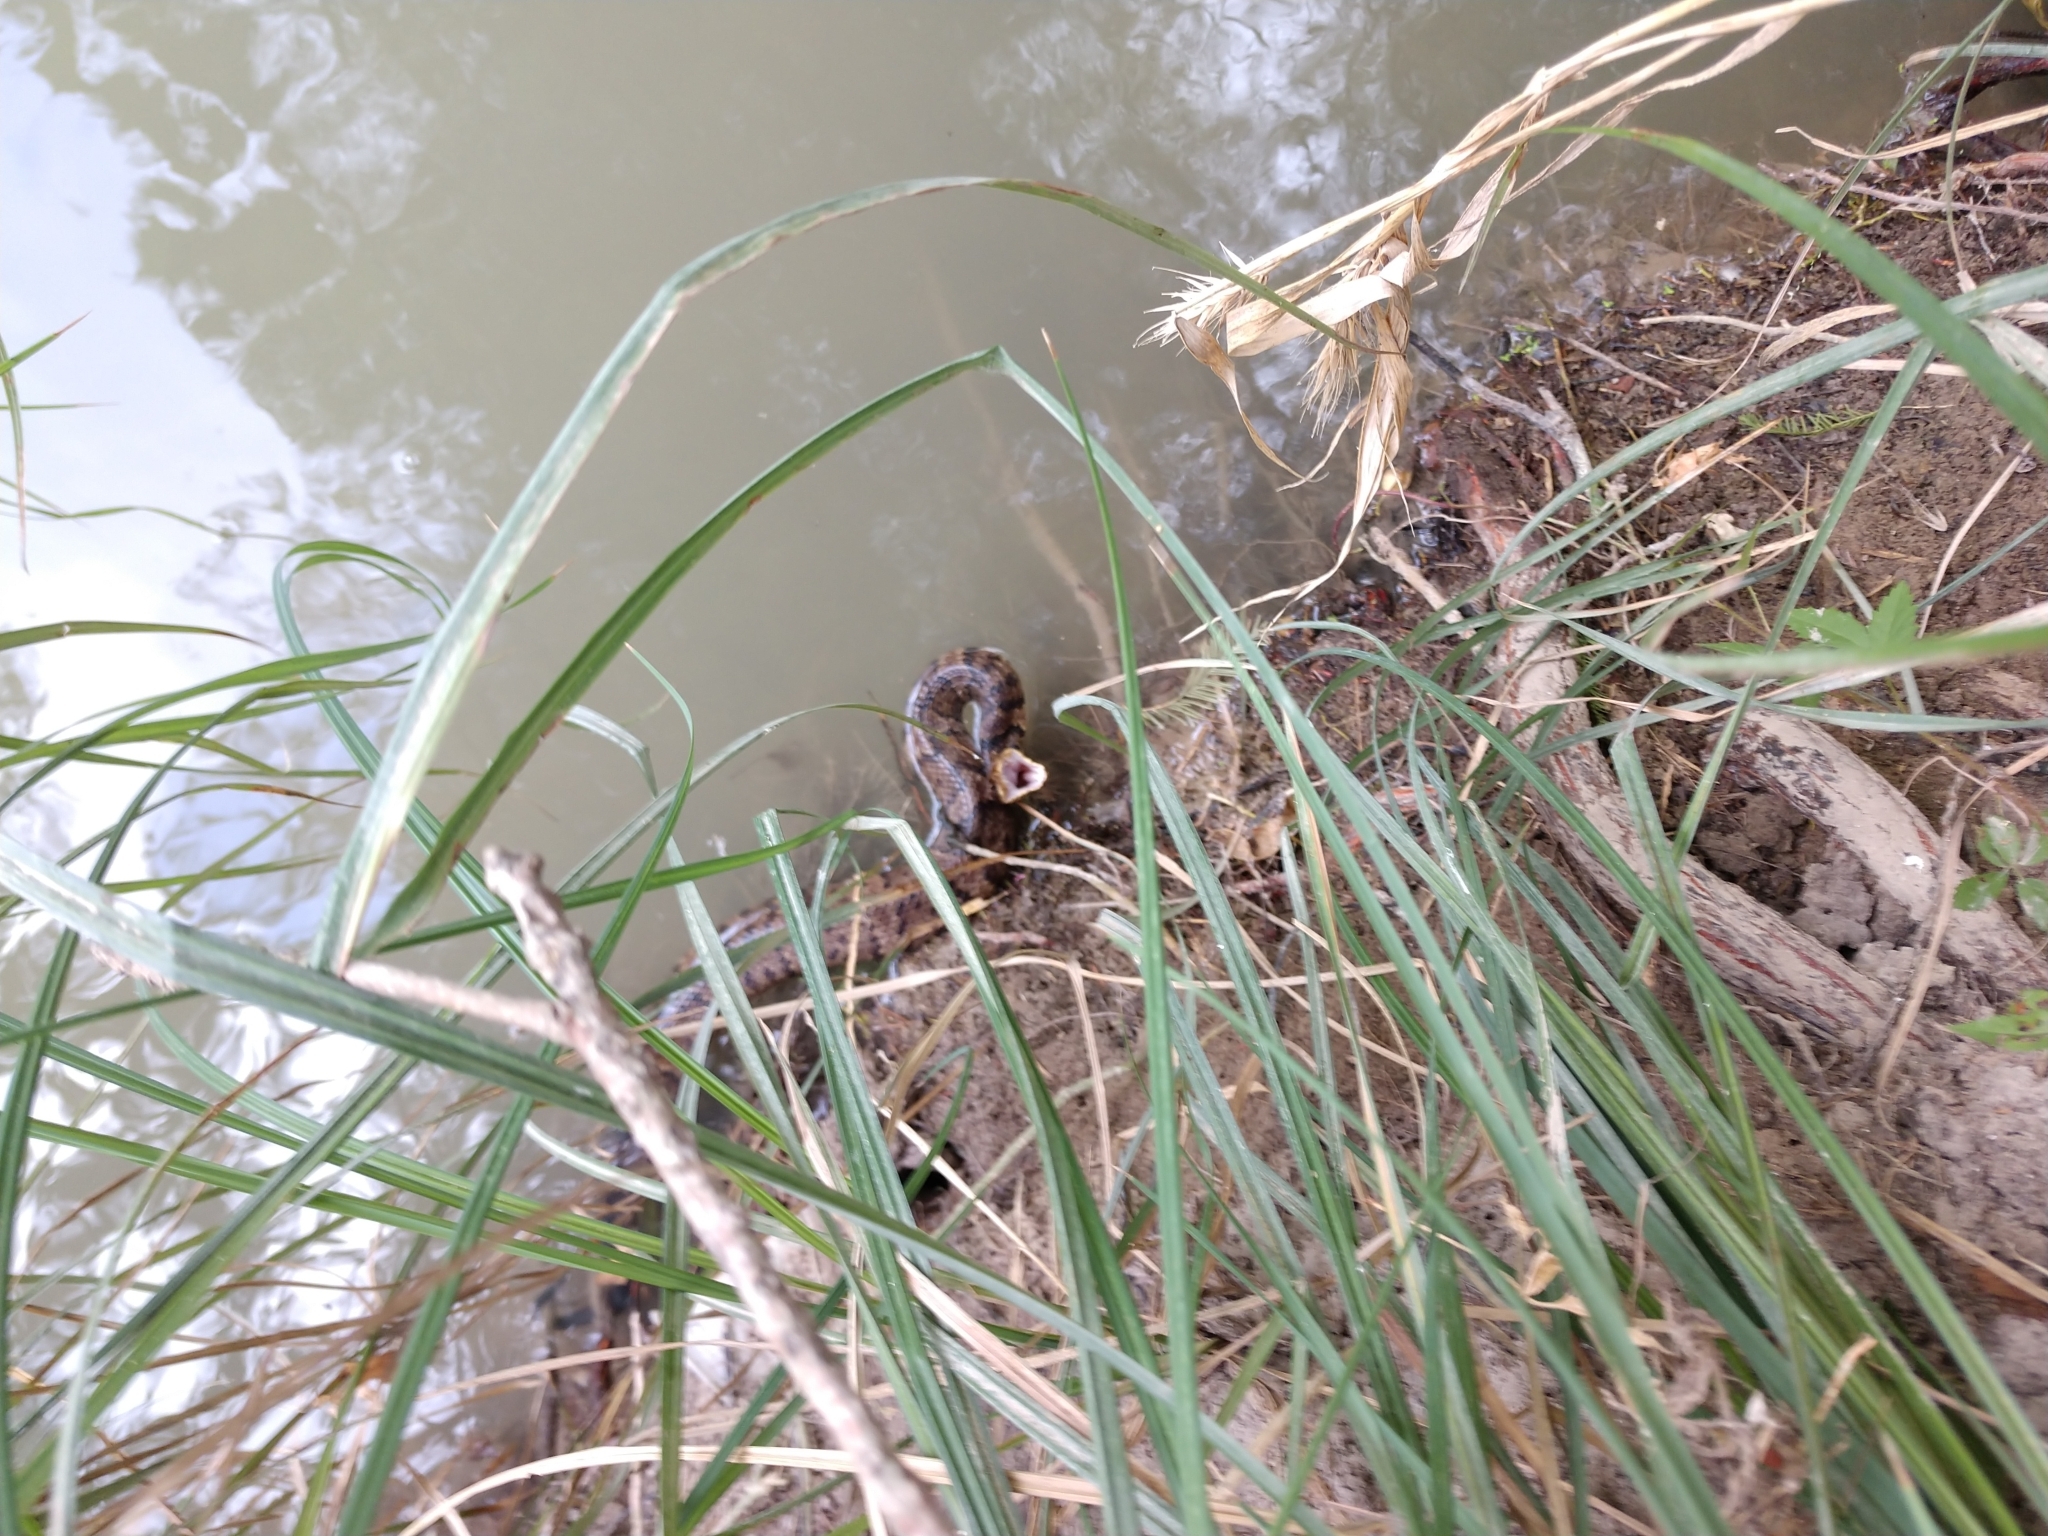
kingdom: Animalia
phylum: Chordata
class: Squamata
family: Viperidae
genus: Agkistrodon
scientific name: Agkistrodon piscivorus
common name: Cottonmouth
